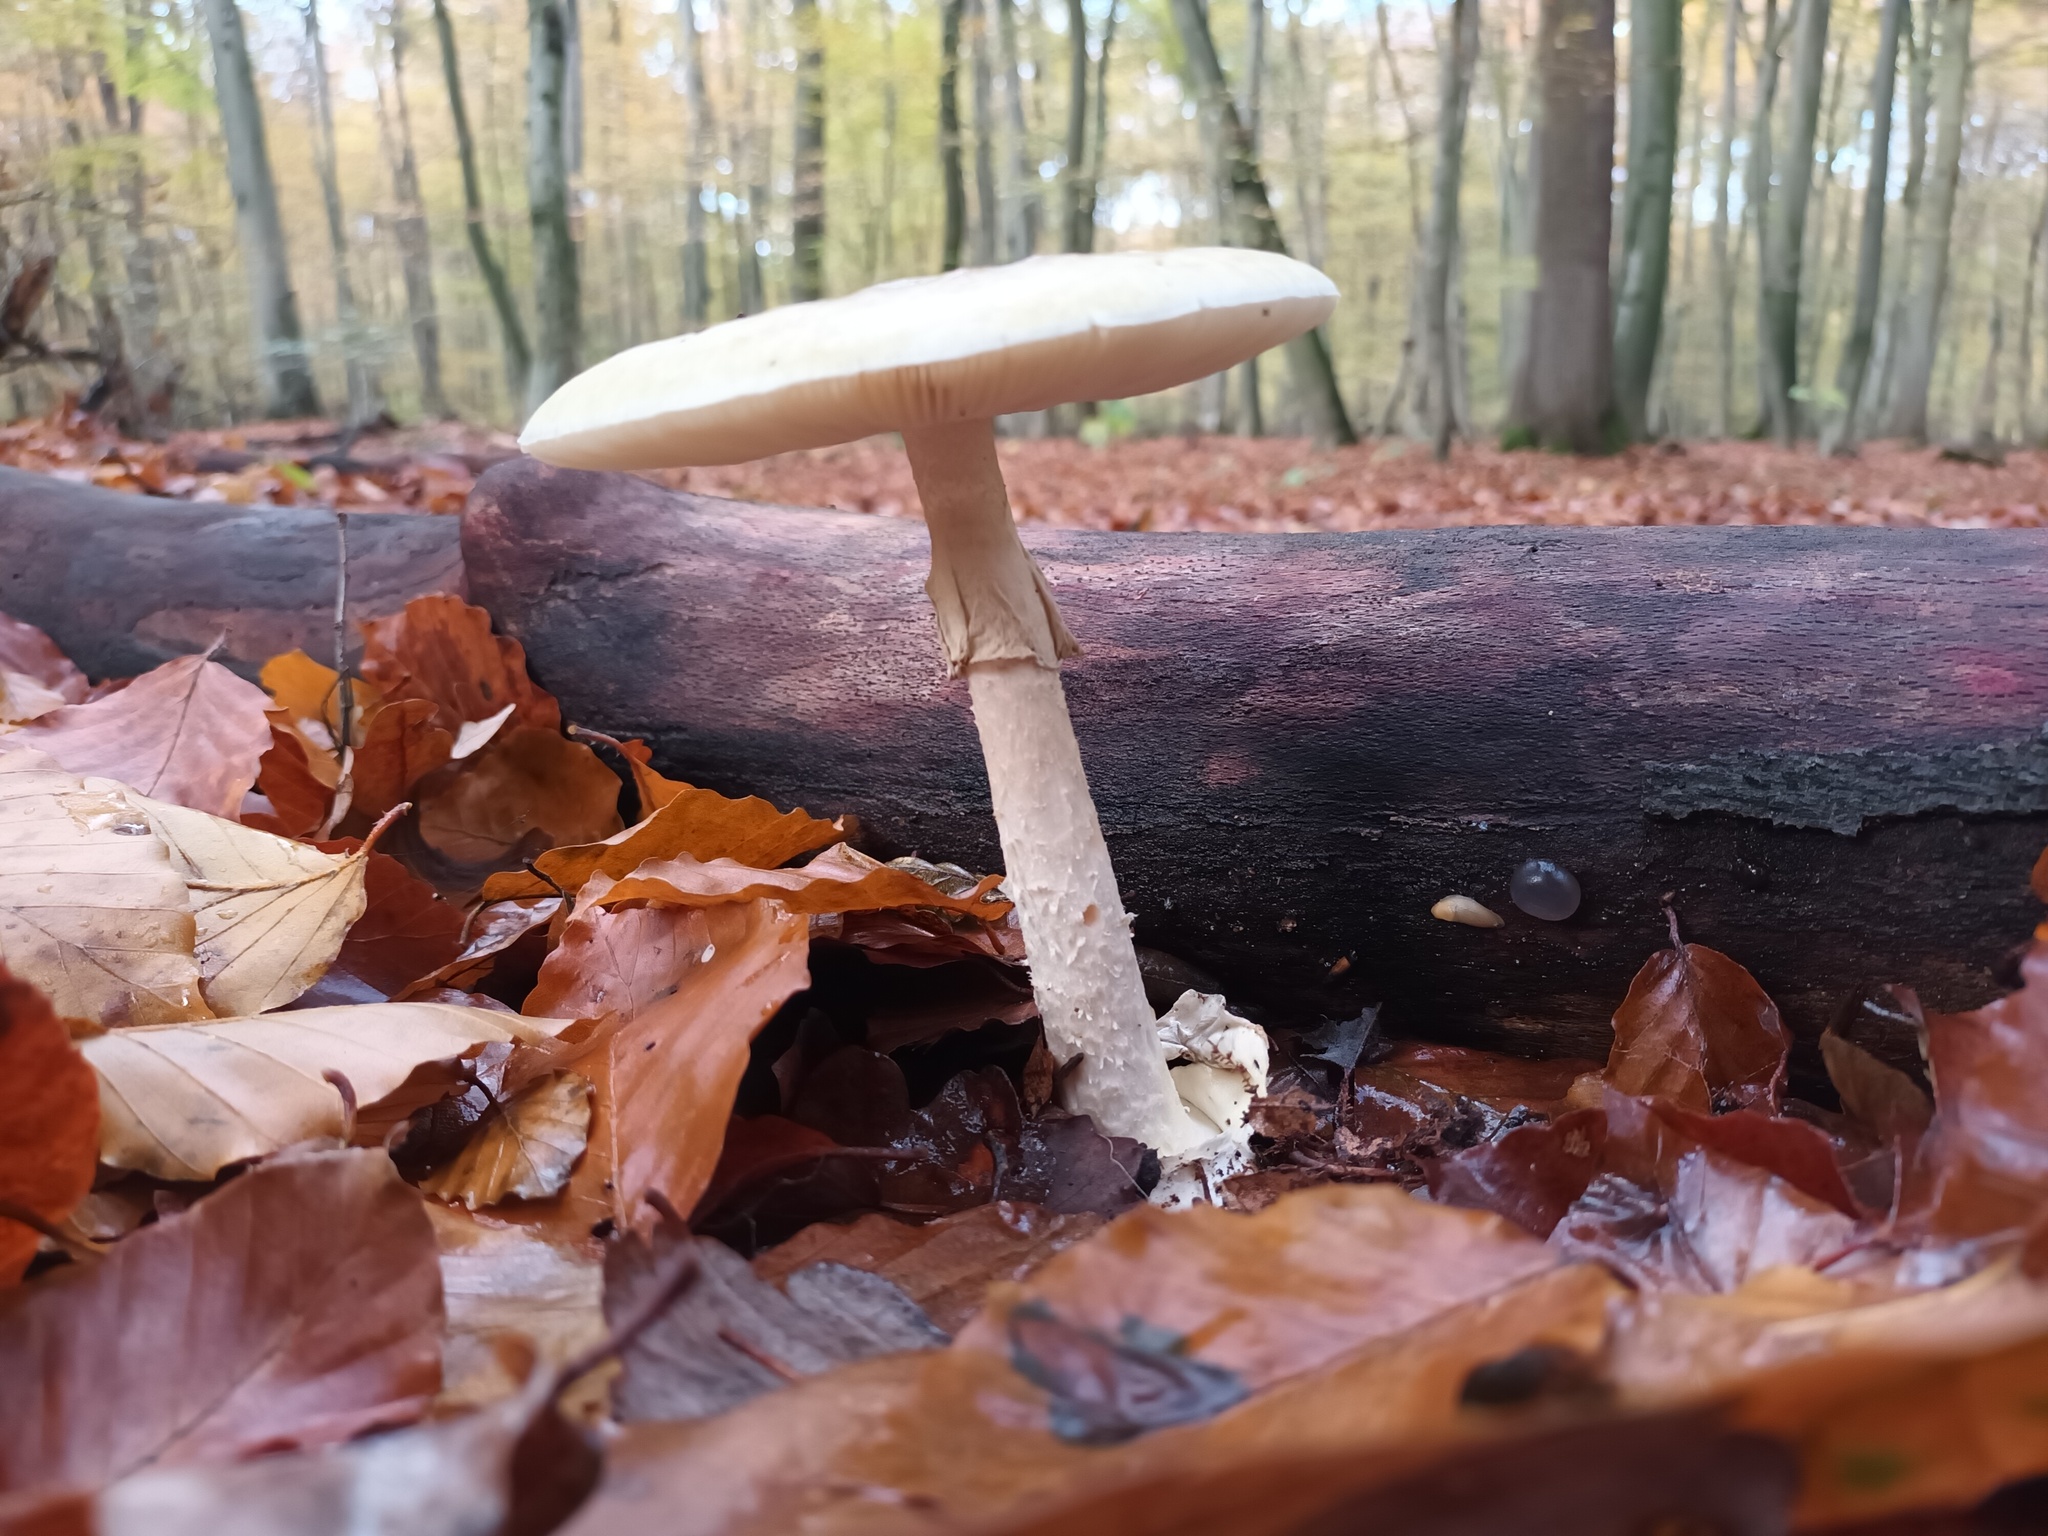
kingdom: Fungi
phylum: Basidiomycota
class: Agaricomycetes
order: Agaricales
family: Amanitaceae
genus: Amanita
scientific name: Amanita phalloides
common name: Death cap
